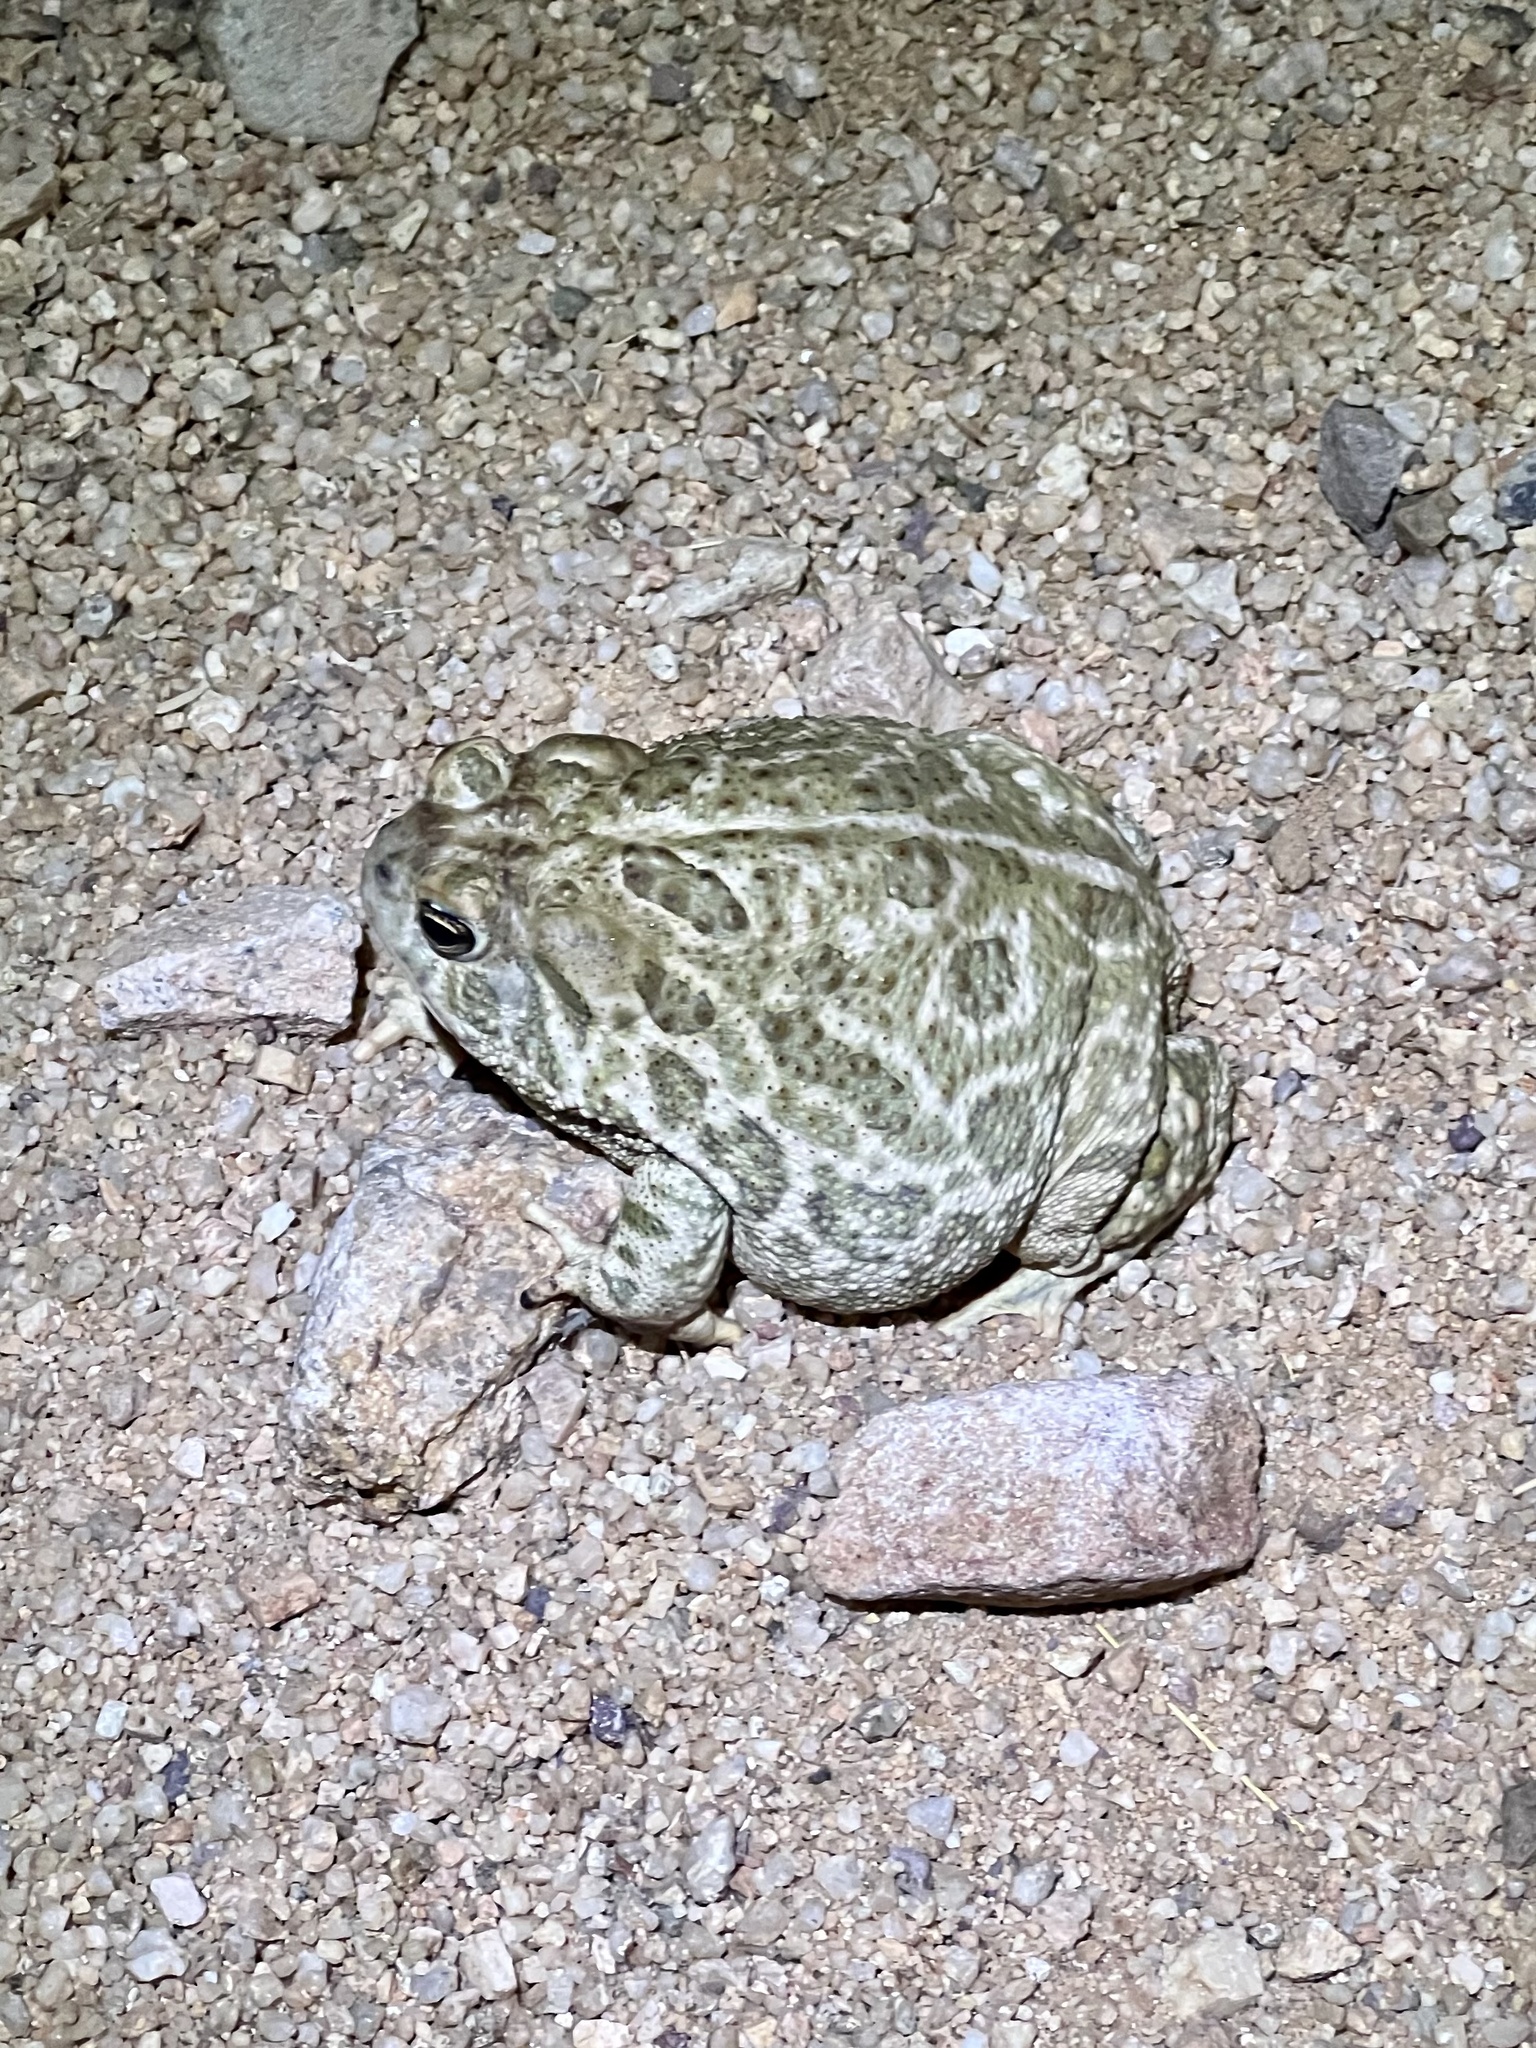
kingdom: Animalia
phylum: Chordata
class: Amphibia
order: Anura
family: Bufonidae
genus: Anaxyrus
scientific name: Anaxyrus cognatus
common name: Great plains toad
